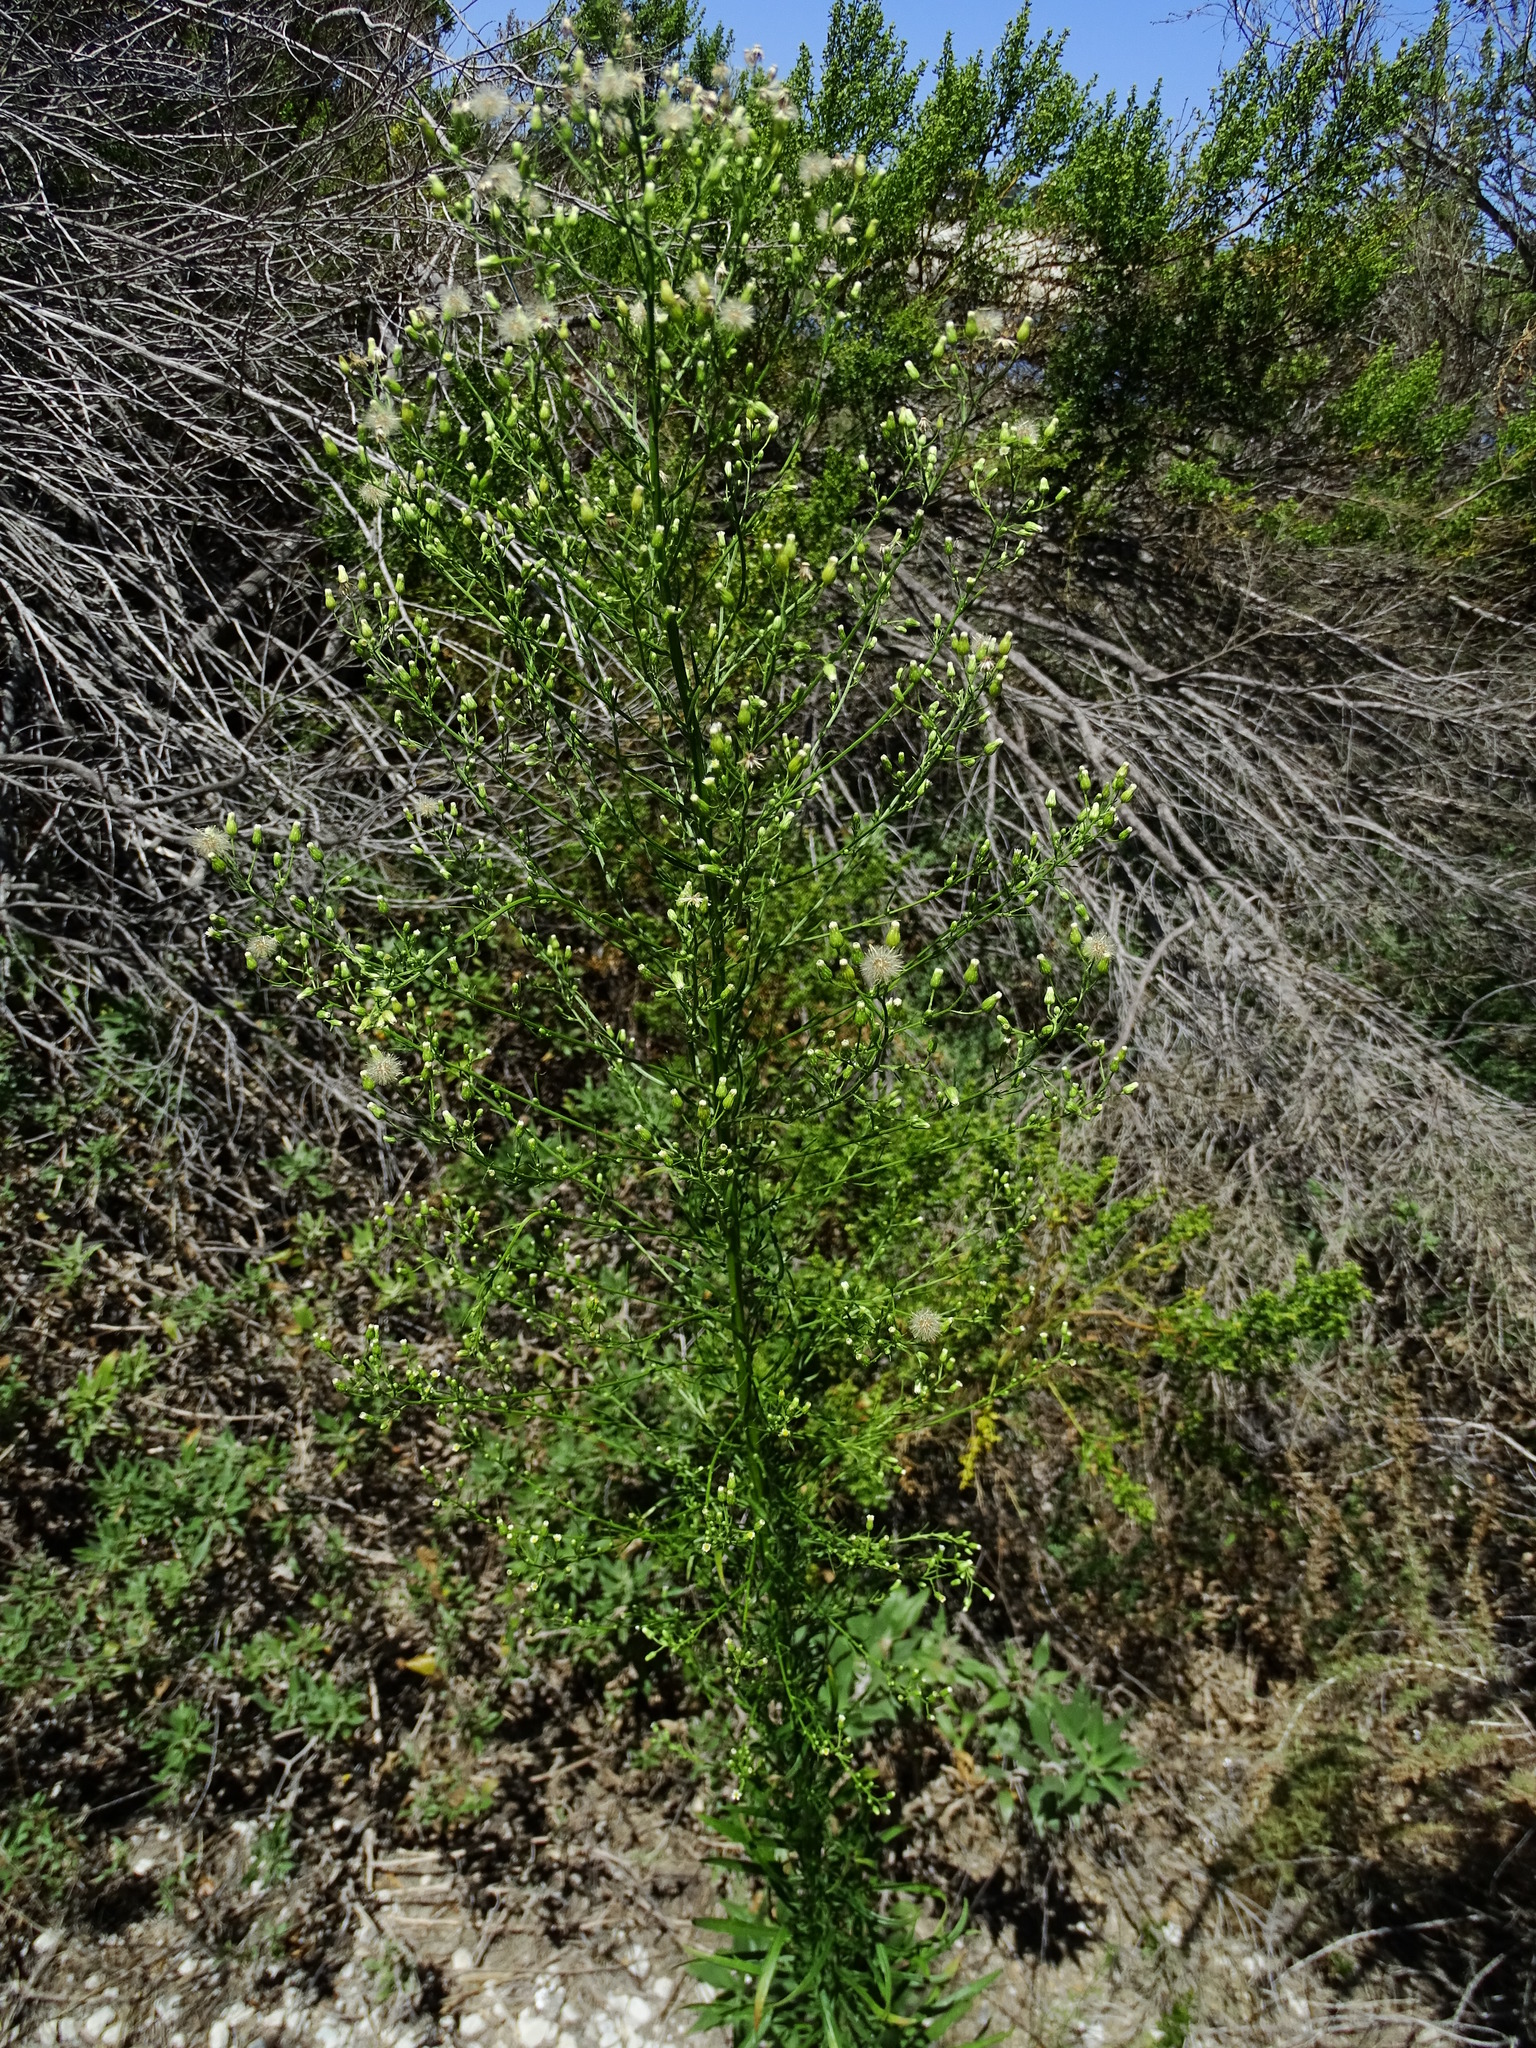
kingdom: Plantae
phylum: Tracheophyta
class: Magnoliopsida
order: Asterales
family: Asteraceae
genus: Erigeron
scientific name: Erigeron canadensis
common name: Canadian fleabane
